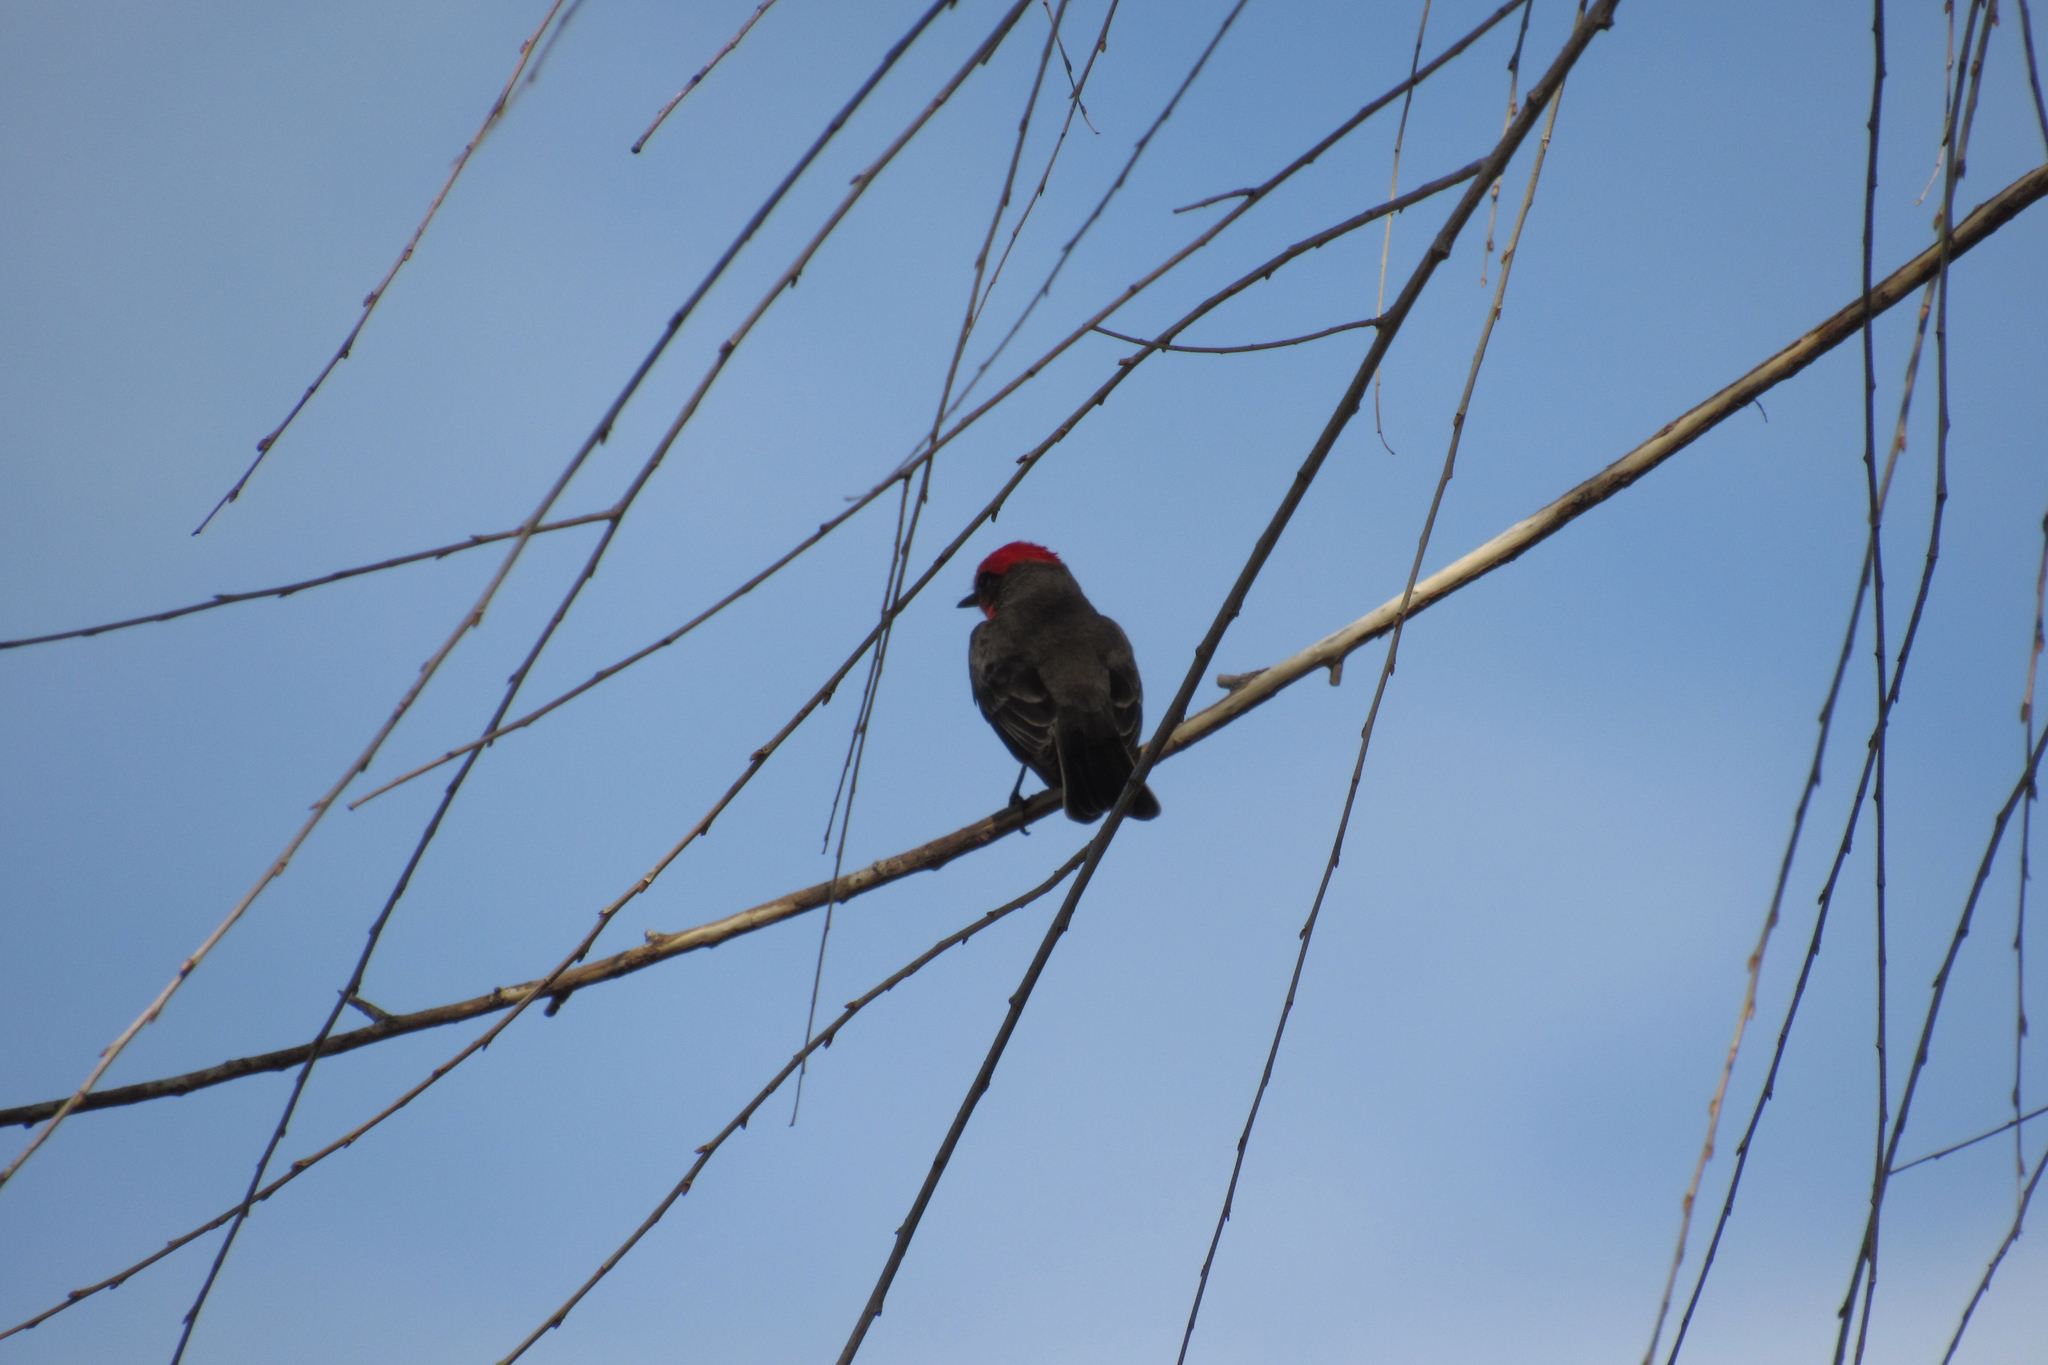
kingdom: Animalia
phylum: Chordata
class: Aves
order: Passeriformes
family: Tyrannidae
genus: Pyrocephalus
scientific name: Pyrocephalus rubinus
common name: Vermilion flycatcher
